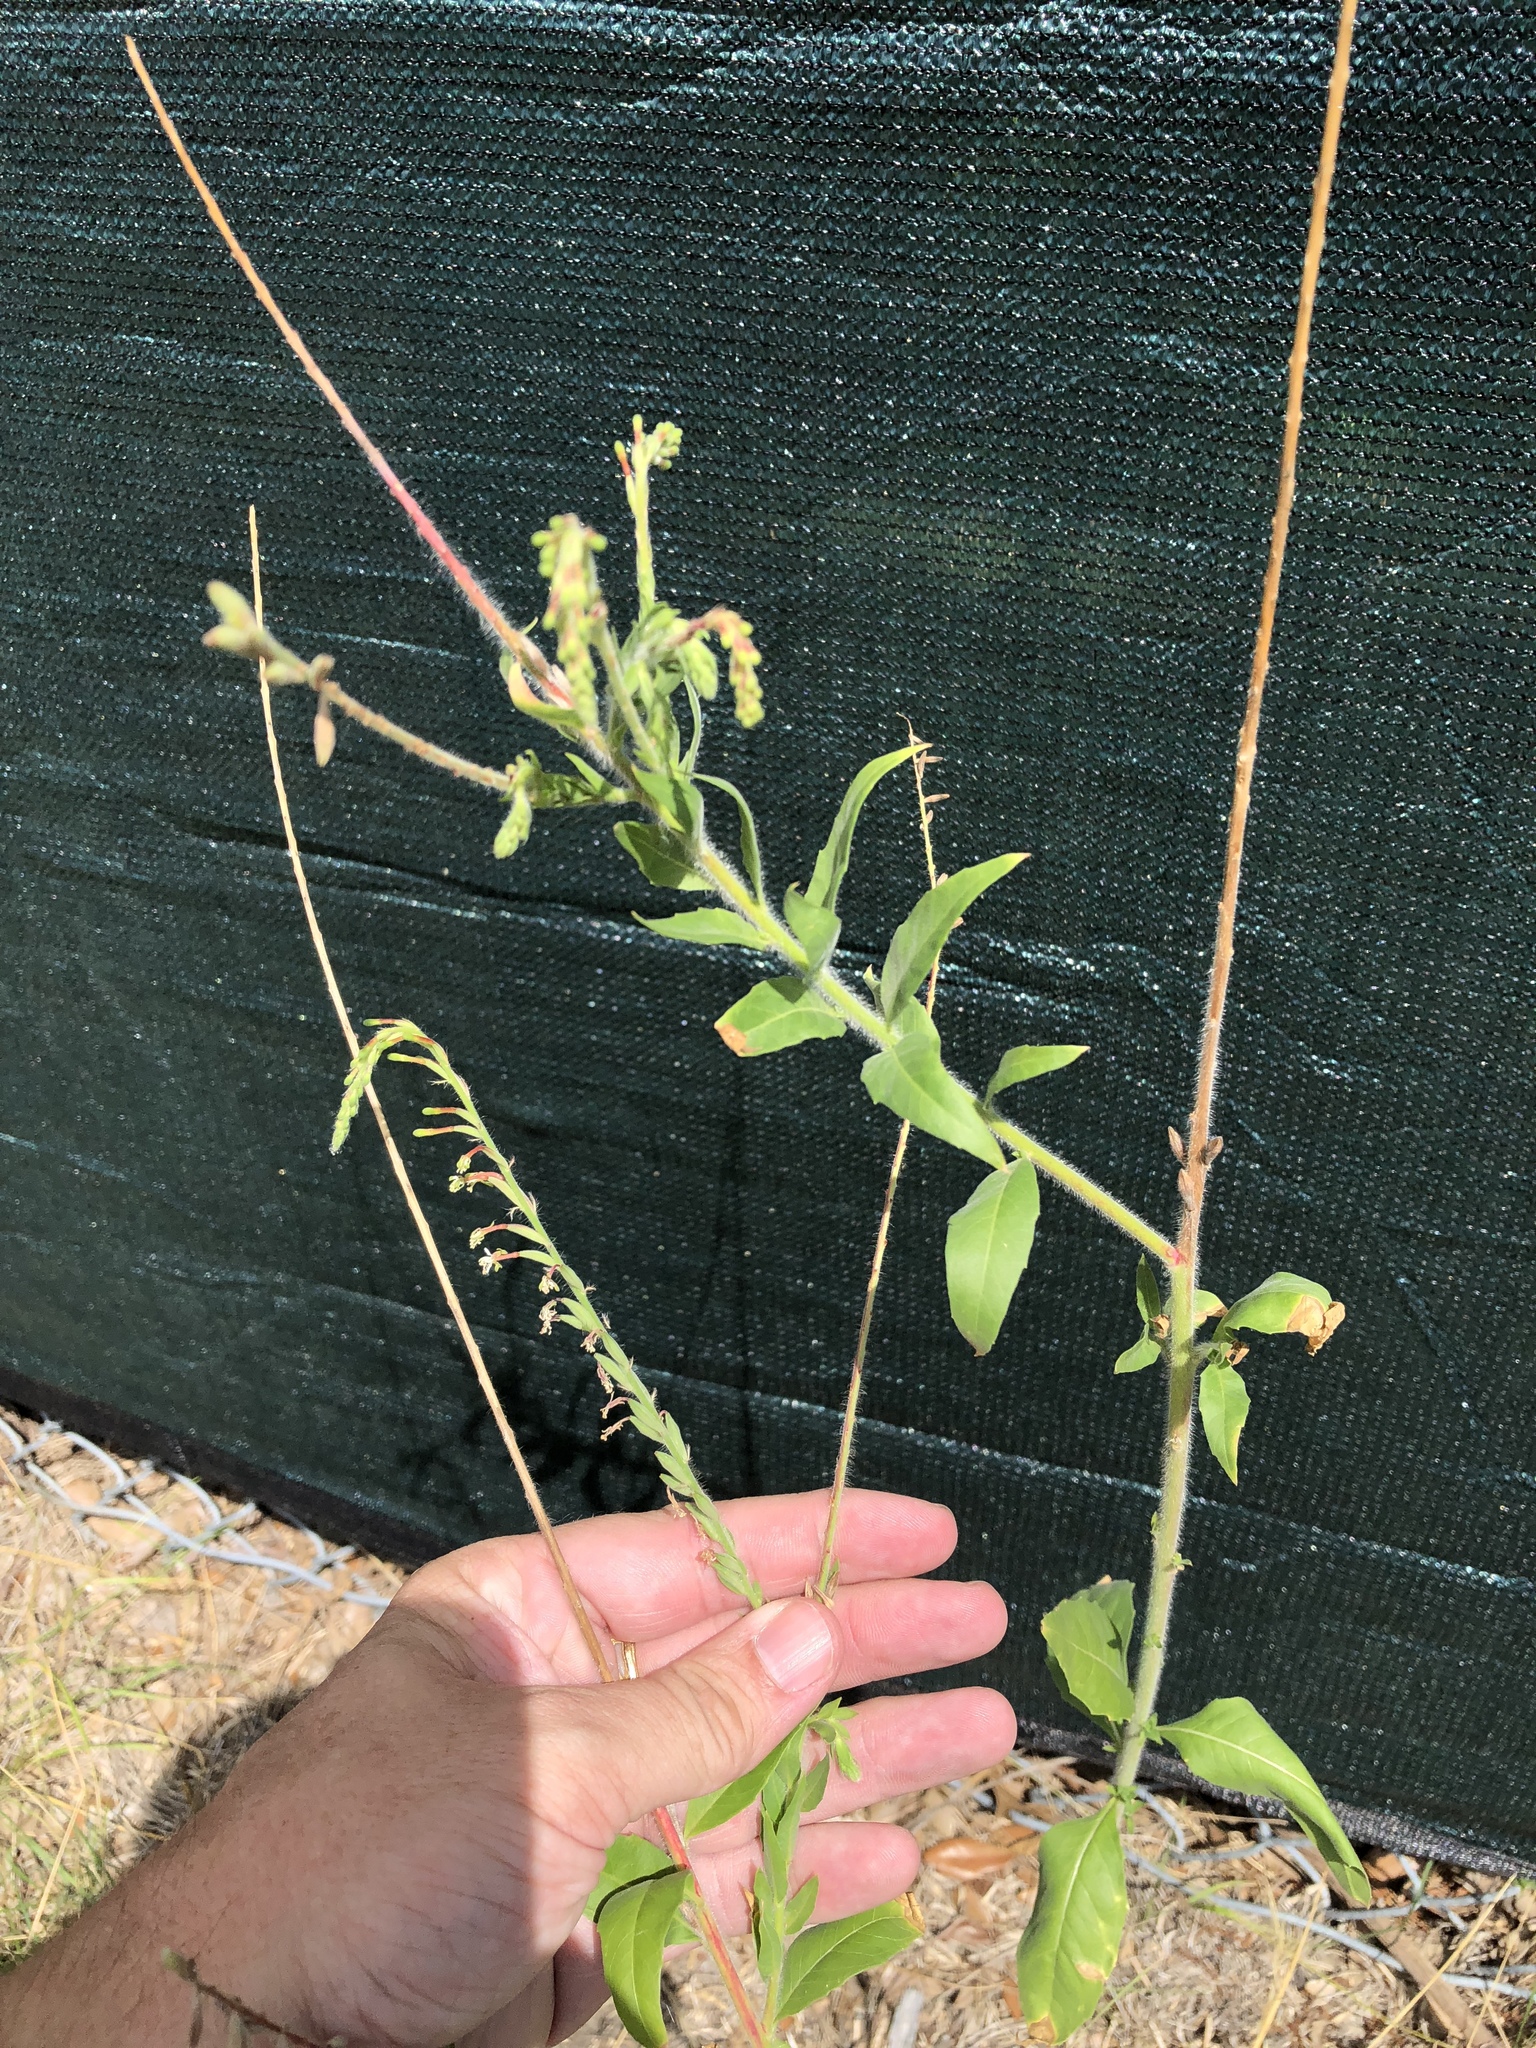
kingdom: Plantae
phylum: Tracheophyta
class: Magnoliopsida
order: Myrtales
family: Onagraceae
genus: Oenothera
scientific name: Oenothera curtiflora
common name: Velvetweed
